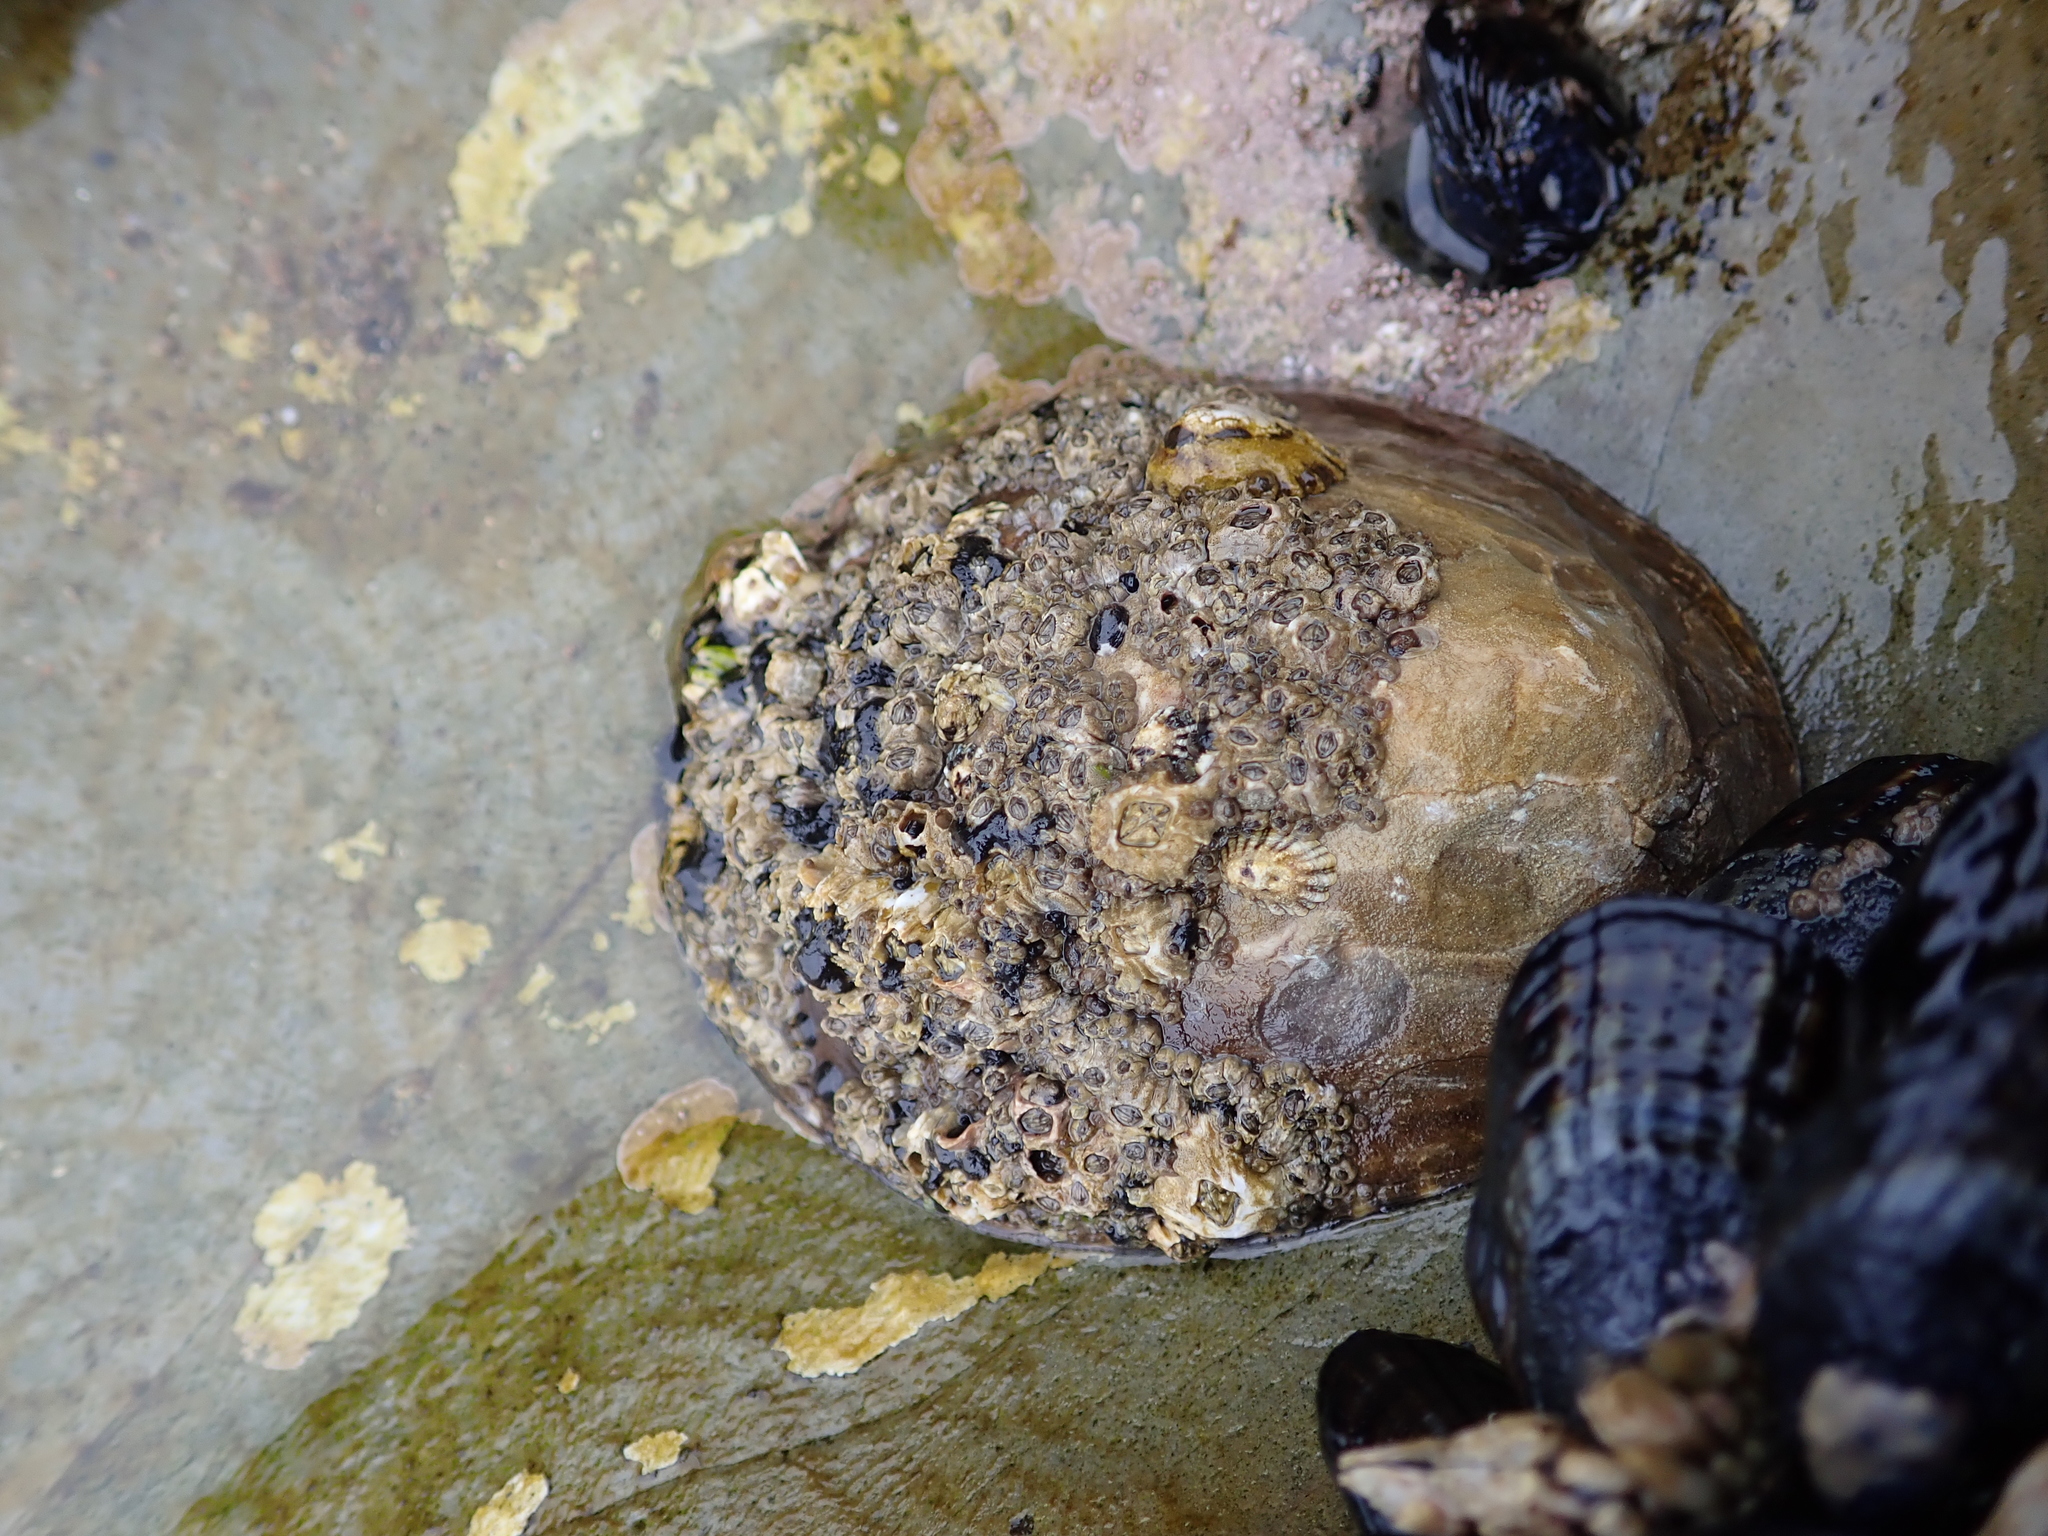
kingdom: Animalia
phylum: Mollusca
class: Gastropoda
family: Lottiidae
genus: Lottia
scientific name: Lottia gigantea
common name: Owl limpet
